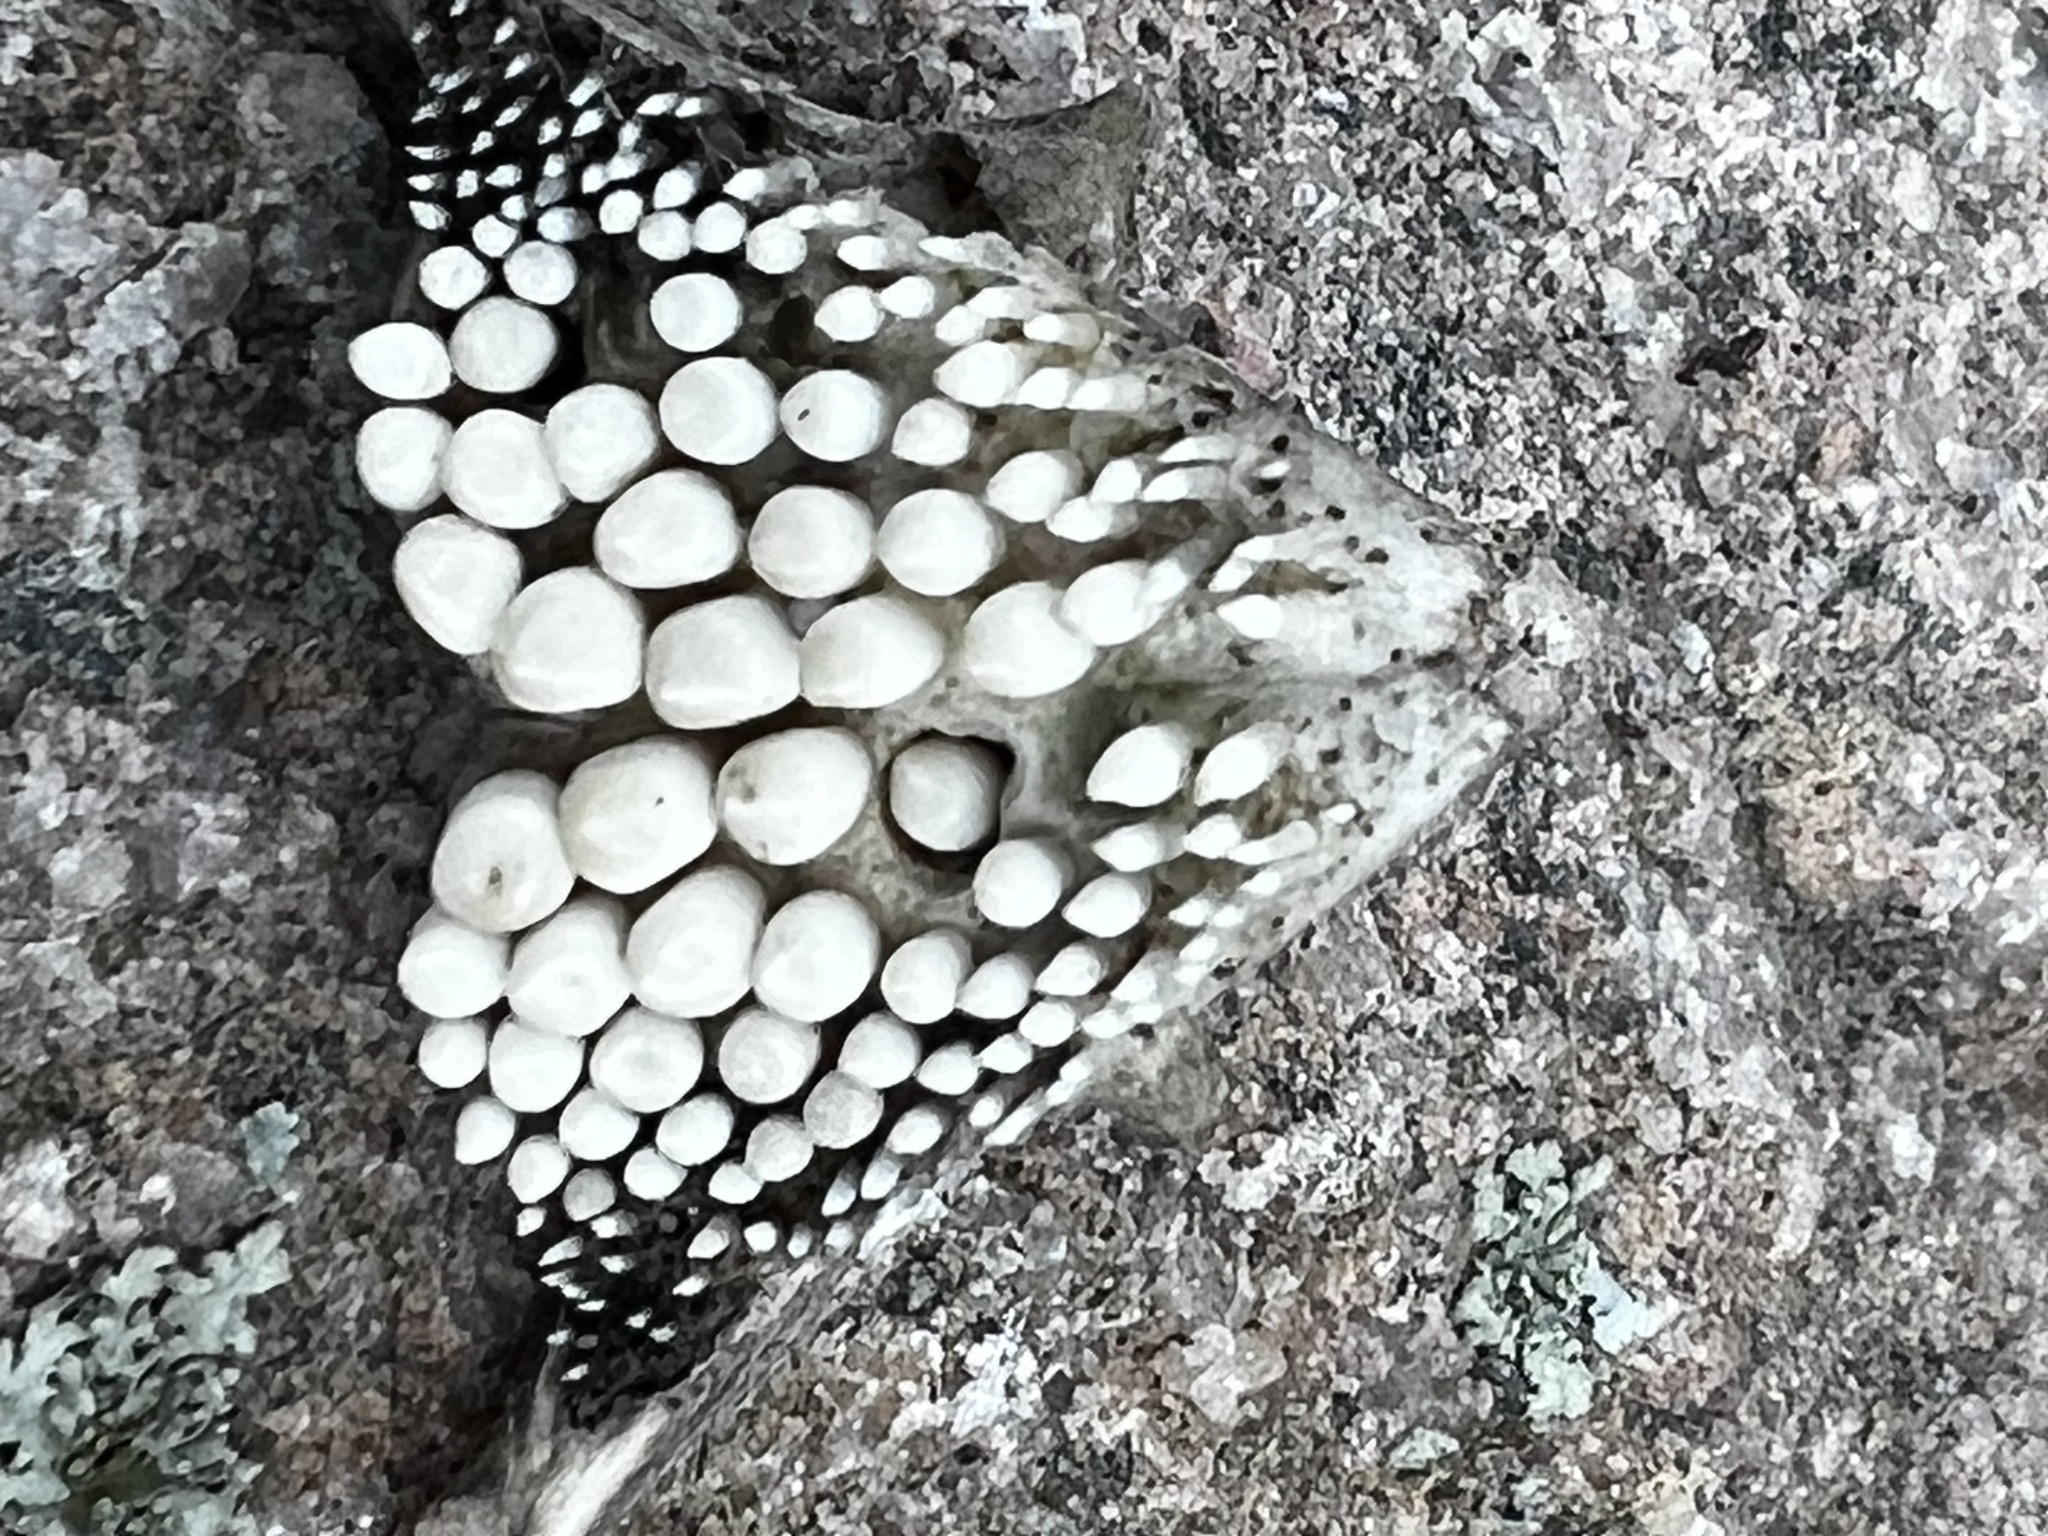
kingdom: Animalia
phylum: Chordata
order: Perciformes
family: Sciaenidae
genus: Aplodinotus
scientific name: Aplodinotus grunniens
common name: Freshwater drum
